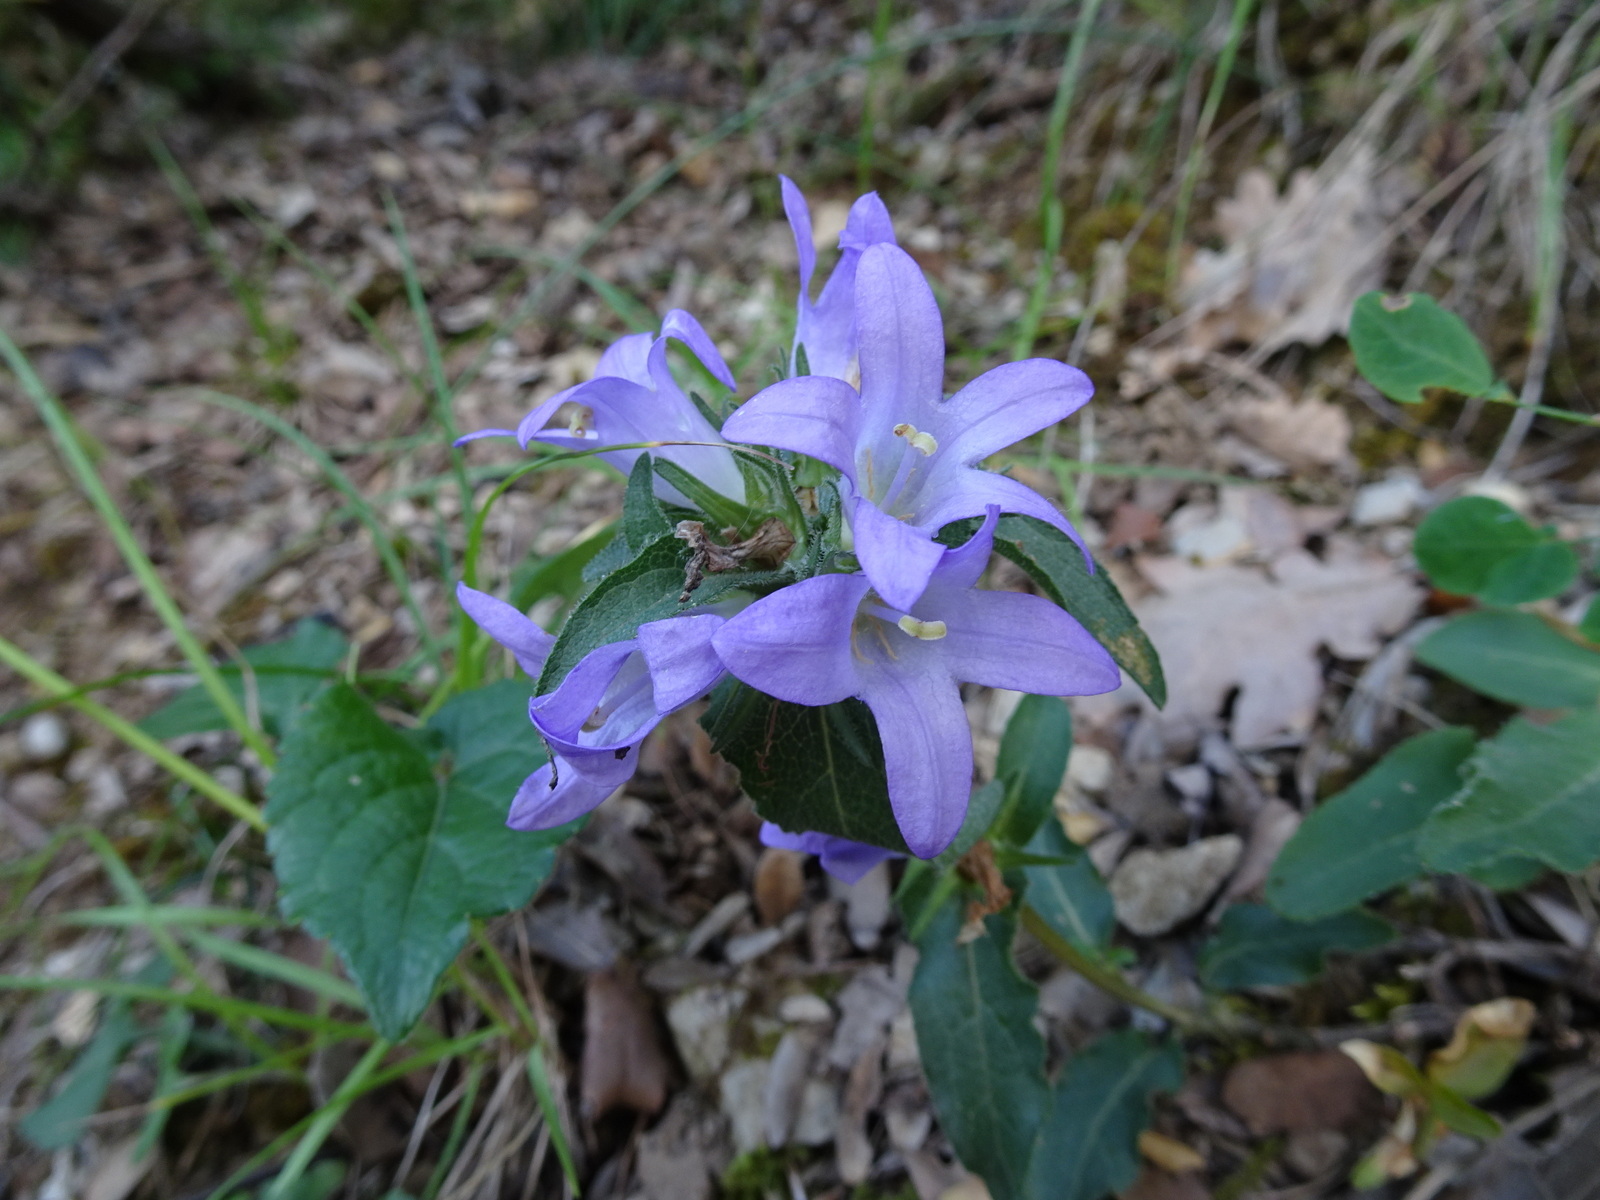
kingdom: Plantae
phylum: Tracheophyta
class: Magnoliopsida
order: Asterales
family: Campanulaceae
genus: Campanula
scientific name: Campanula glomerata
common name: Clustered bellflower
